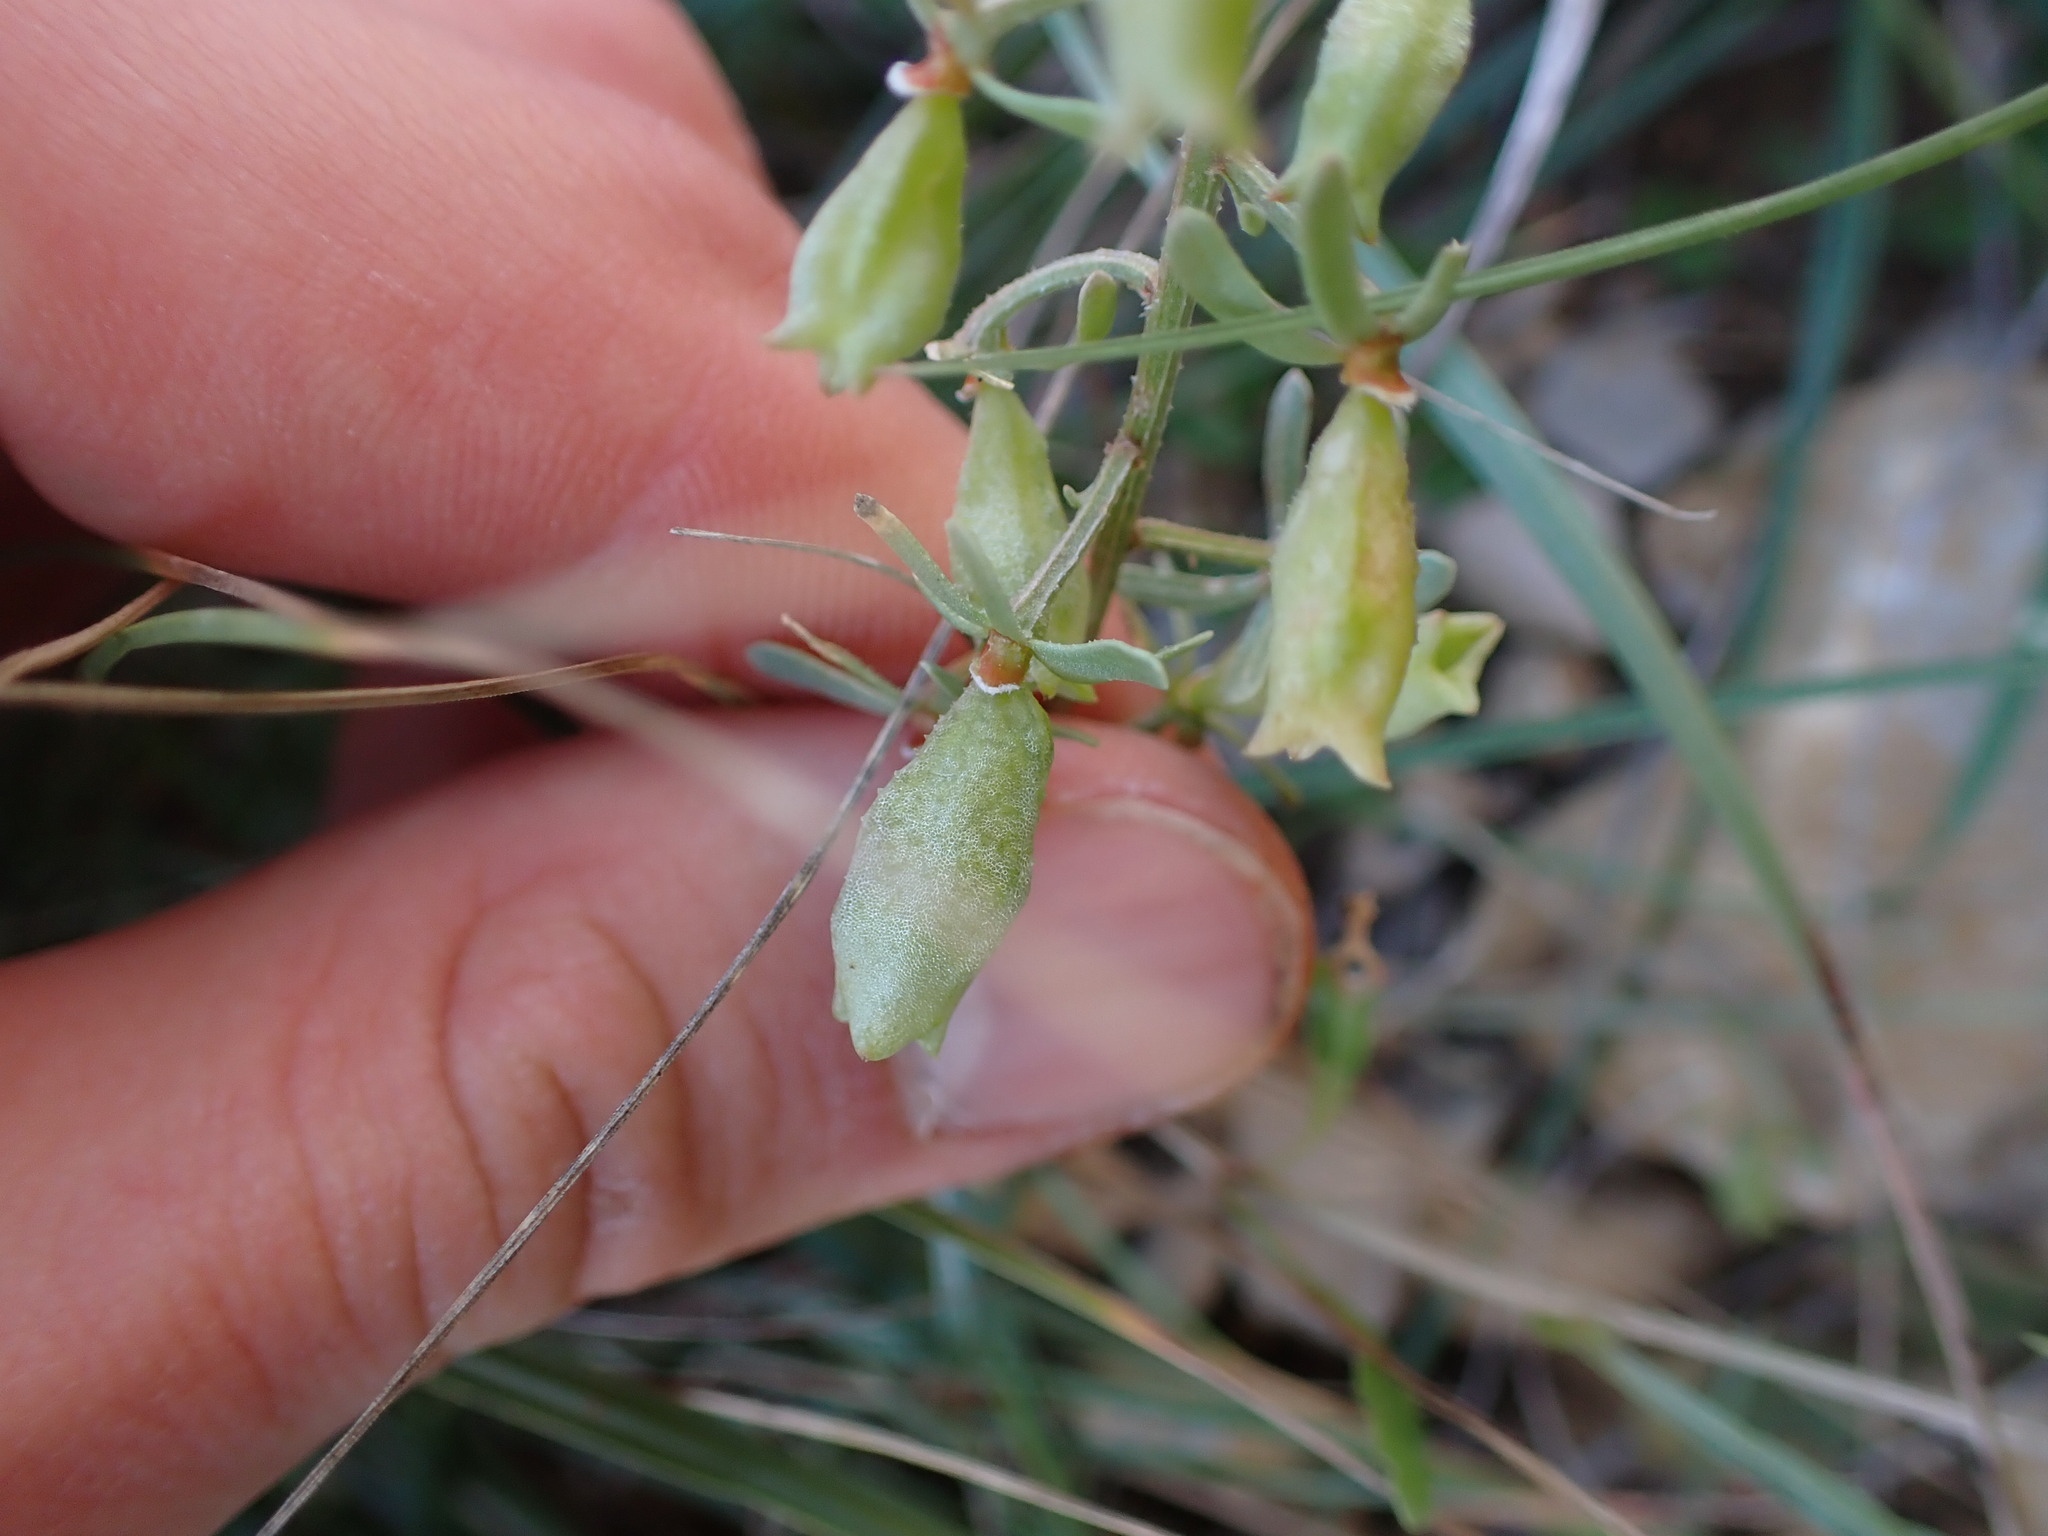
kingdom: Plantae
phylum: Tracheophyta
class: Magnoliopsida
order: Brassicales
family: Resedaceae
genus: Reseda
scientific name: Reseda phyteuma
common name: Corn mignonette
